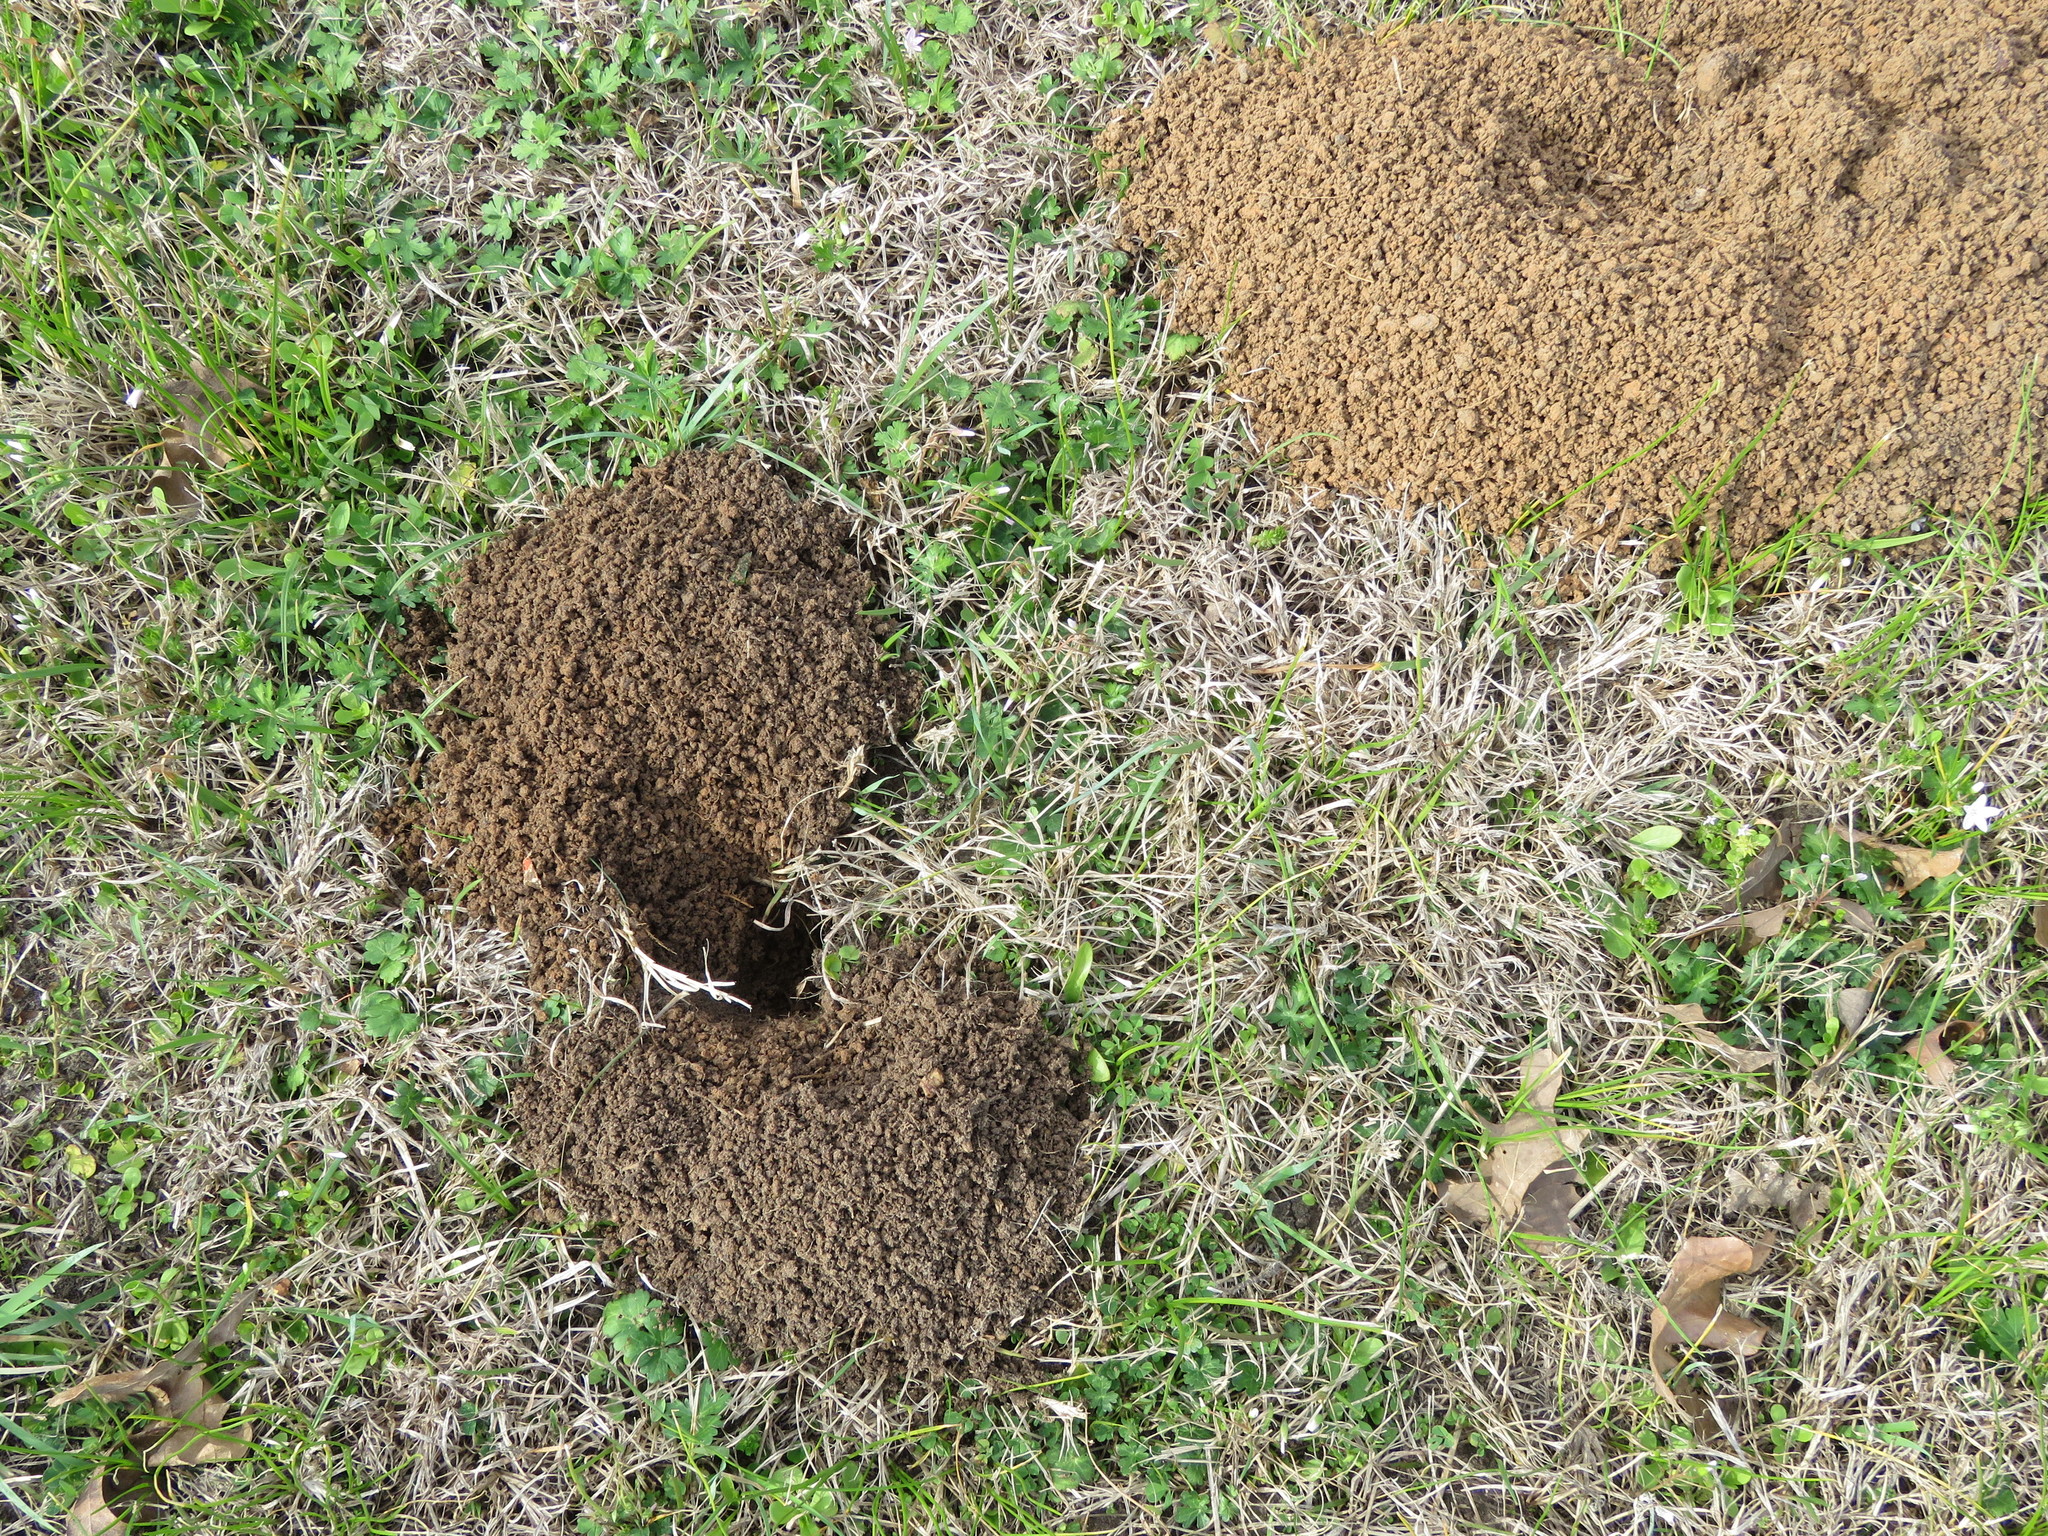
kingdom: Animalia
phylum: Chordata
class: Mammalia
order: Rodentia
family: Geomyidae
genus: Geomys
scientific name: Geomys breviceps
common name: Baird's pocket gopher
